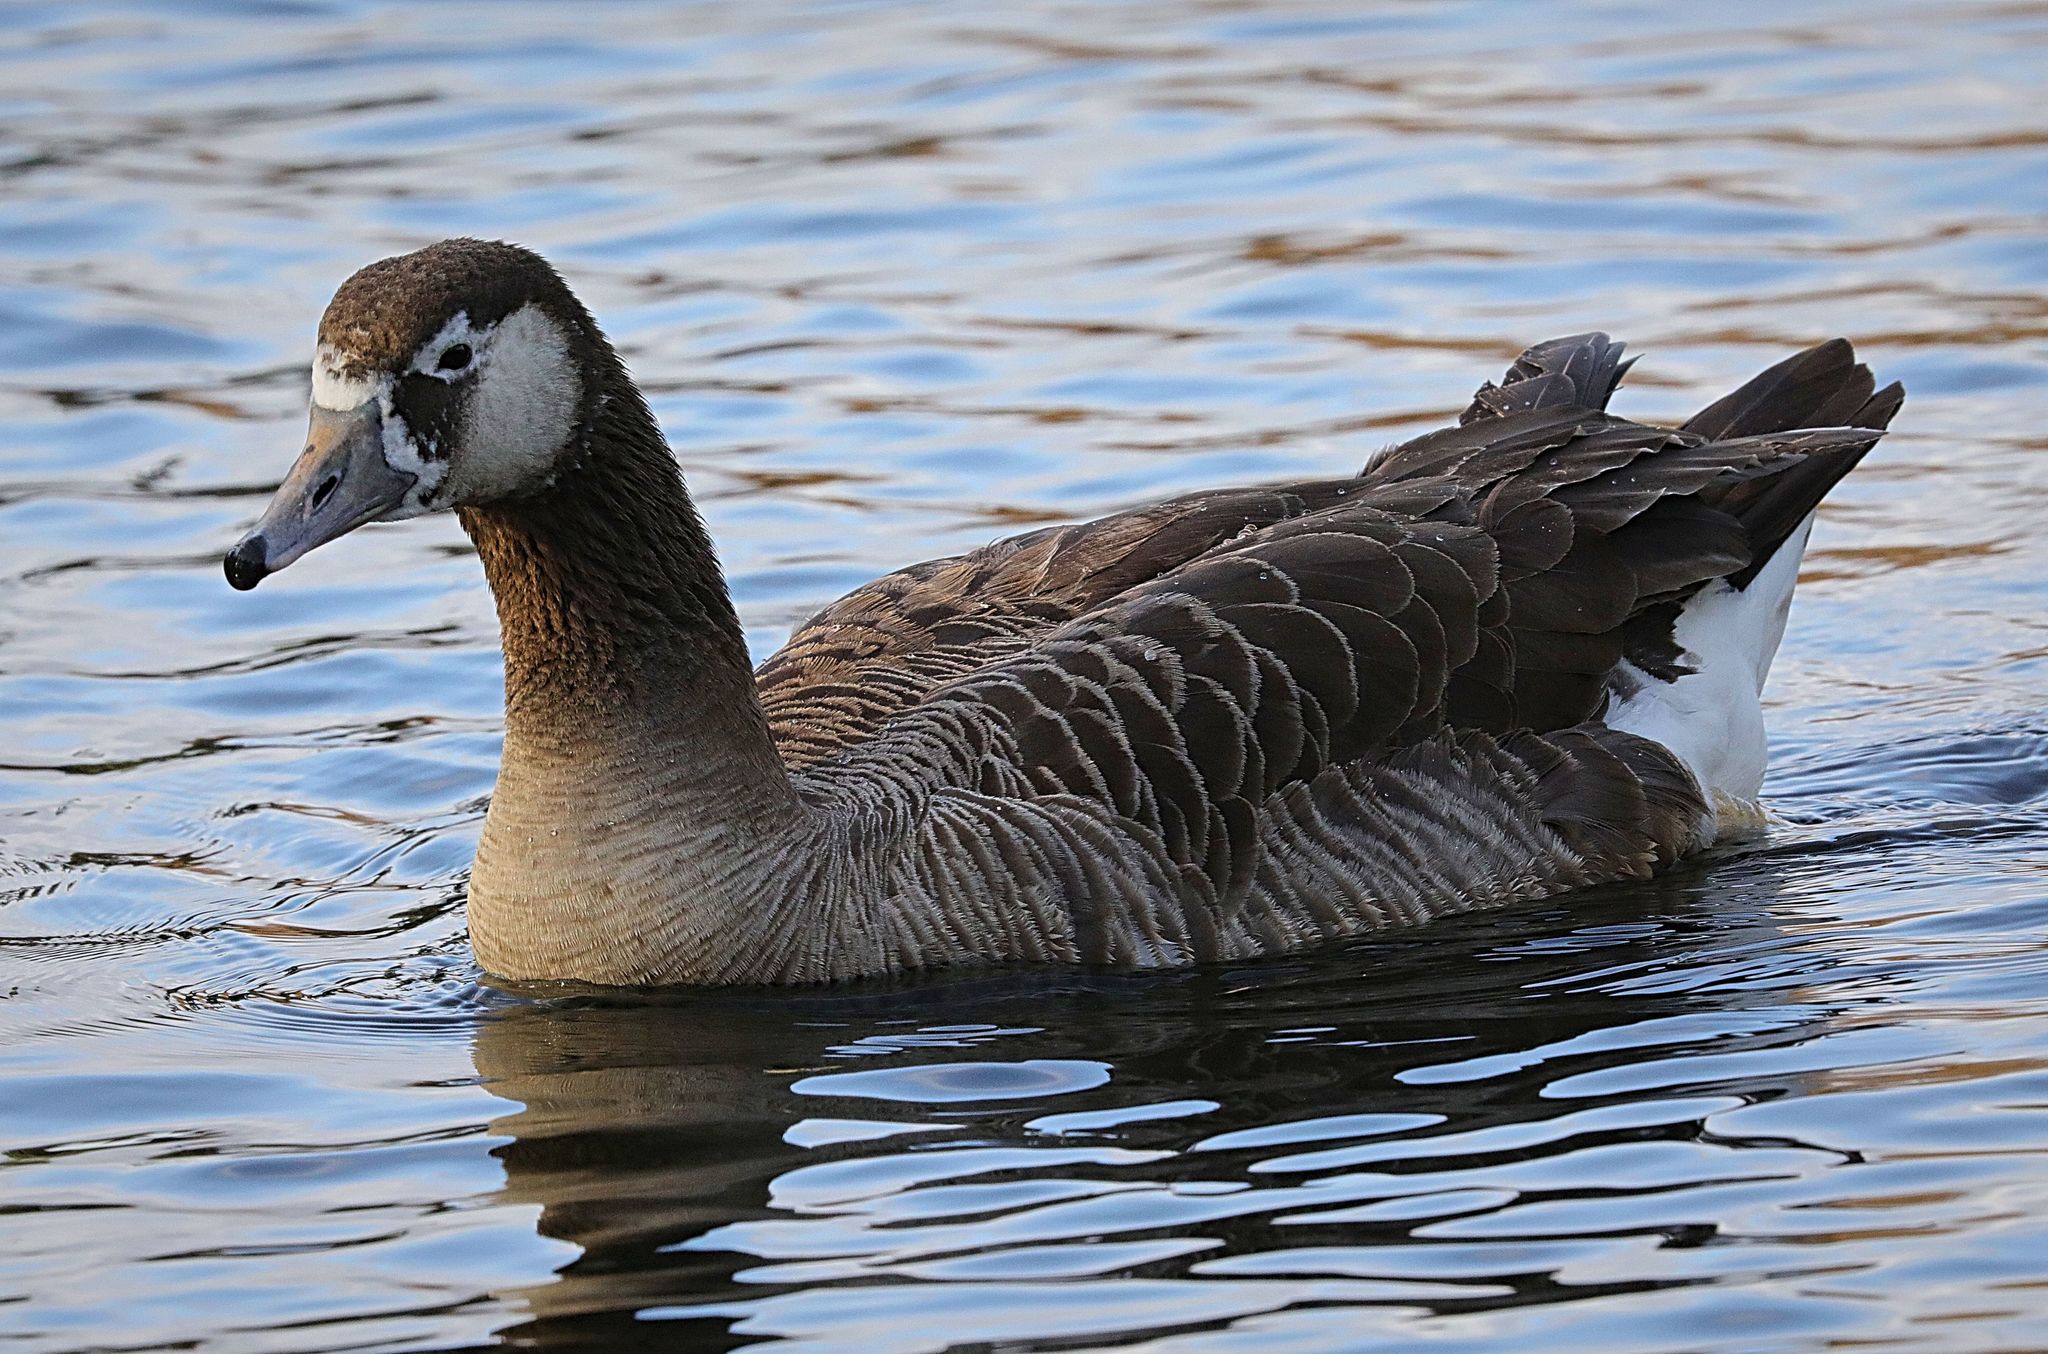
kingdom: Animalia
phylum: Chordata
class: Aves
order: Anseriformes
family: Anatidae
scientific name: Anatidae
